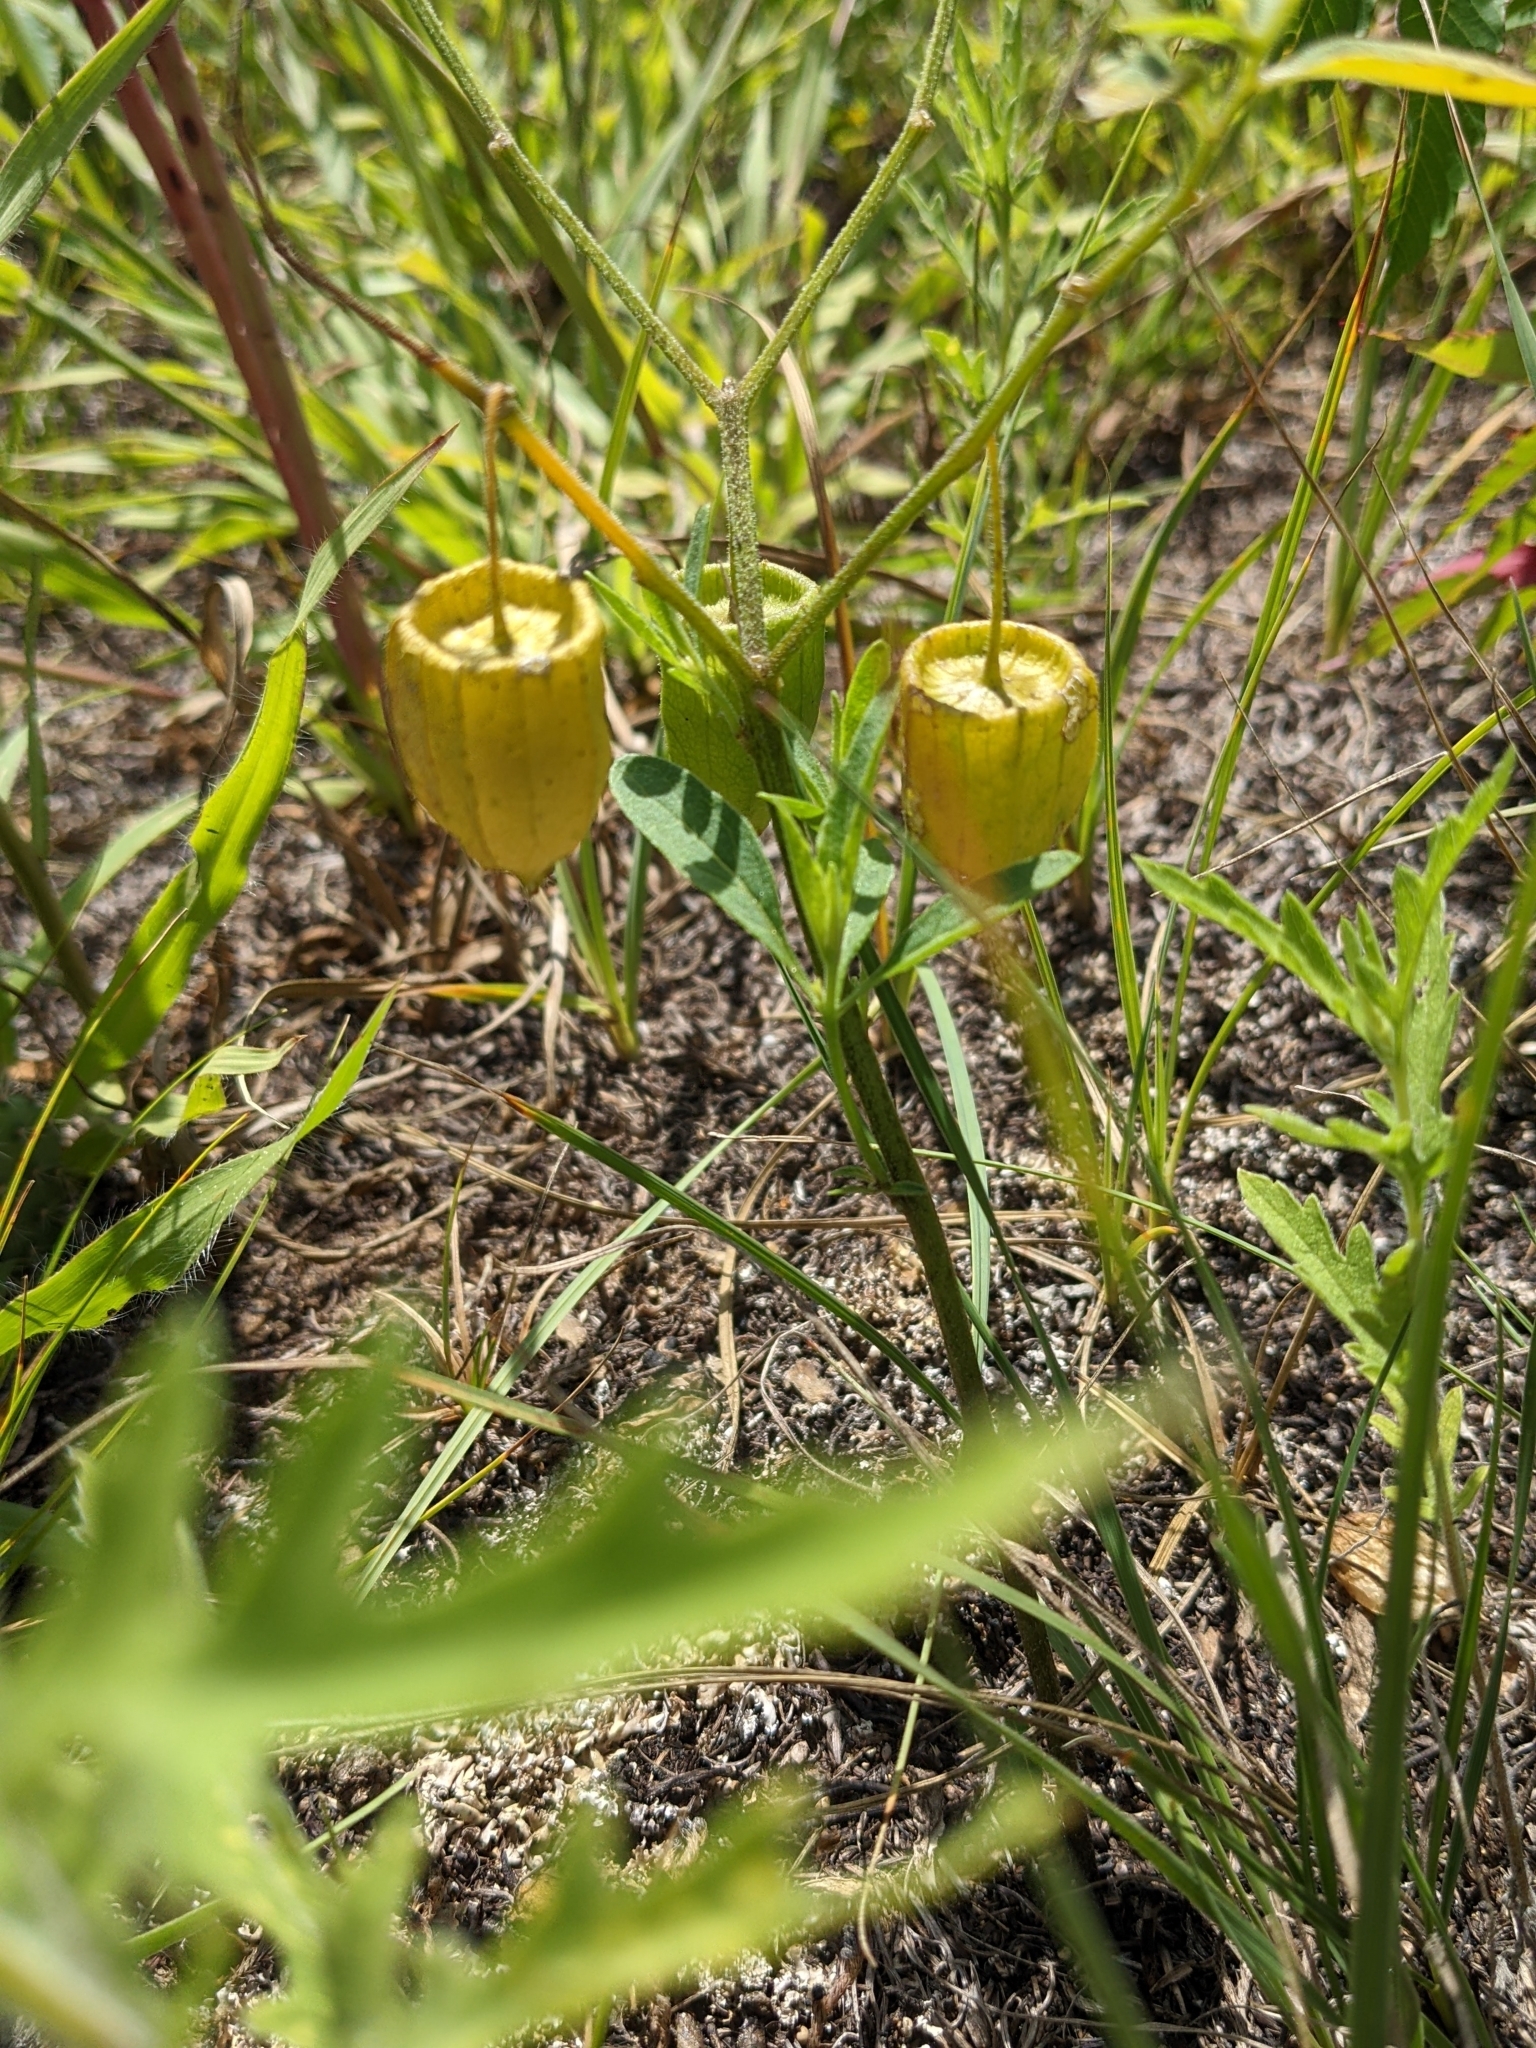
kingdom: Plantae
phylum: Tracheophyta
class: Magnoliopsida
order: Solanales
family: Solanaceae
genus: Physalis
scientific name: Physalis virginiana
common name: Virginia ground-cherry
